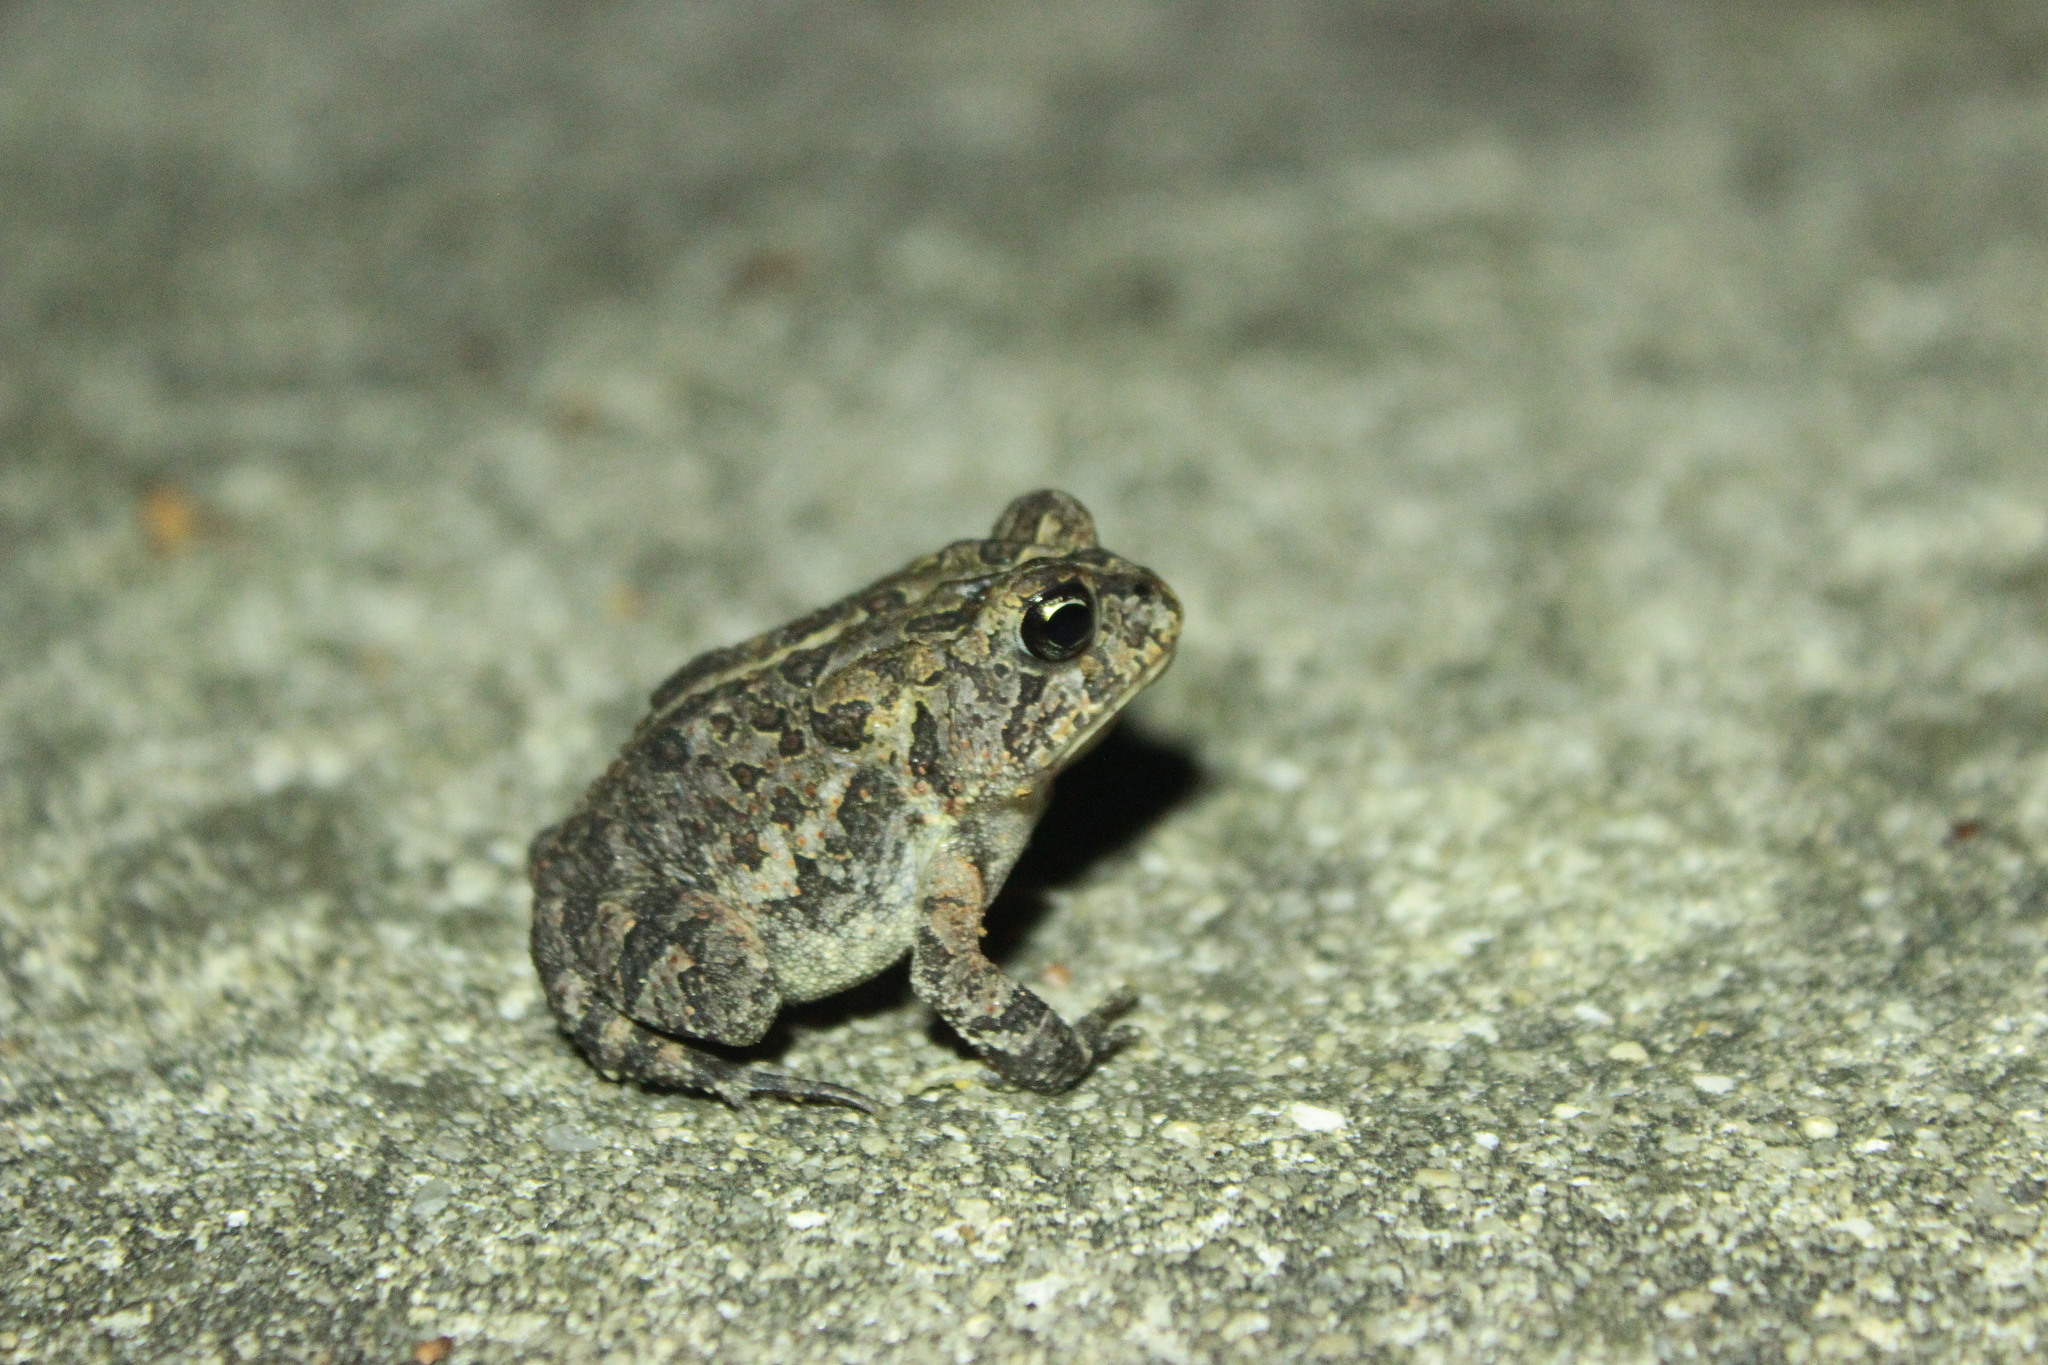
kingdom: Animalia
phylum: Chordata
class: Amphibia
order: Anura
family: Bufonidae
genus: Anaxyrus
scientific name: Anaxyrus terrestris
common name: Southern toad
